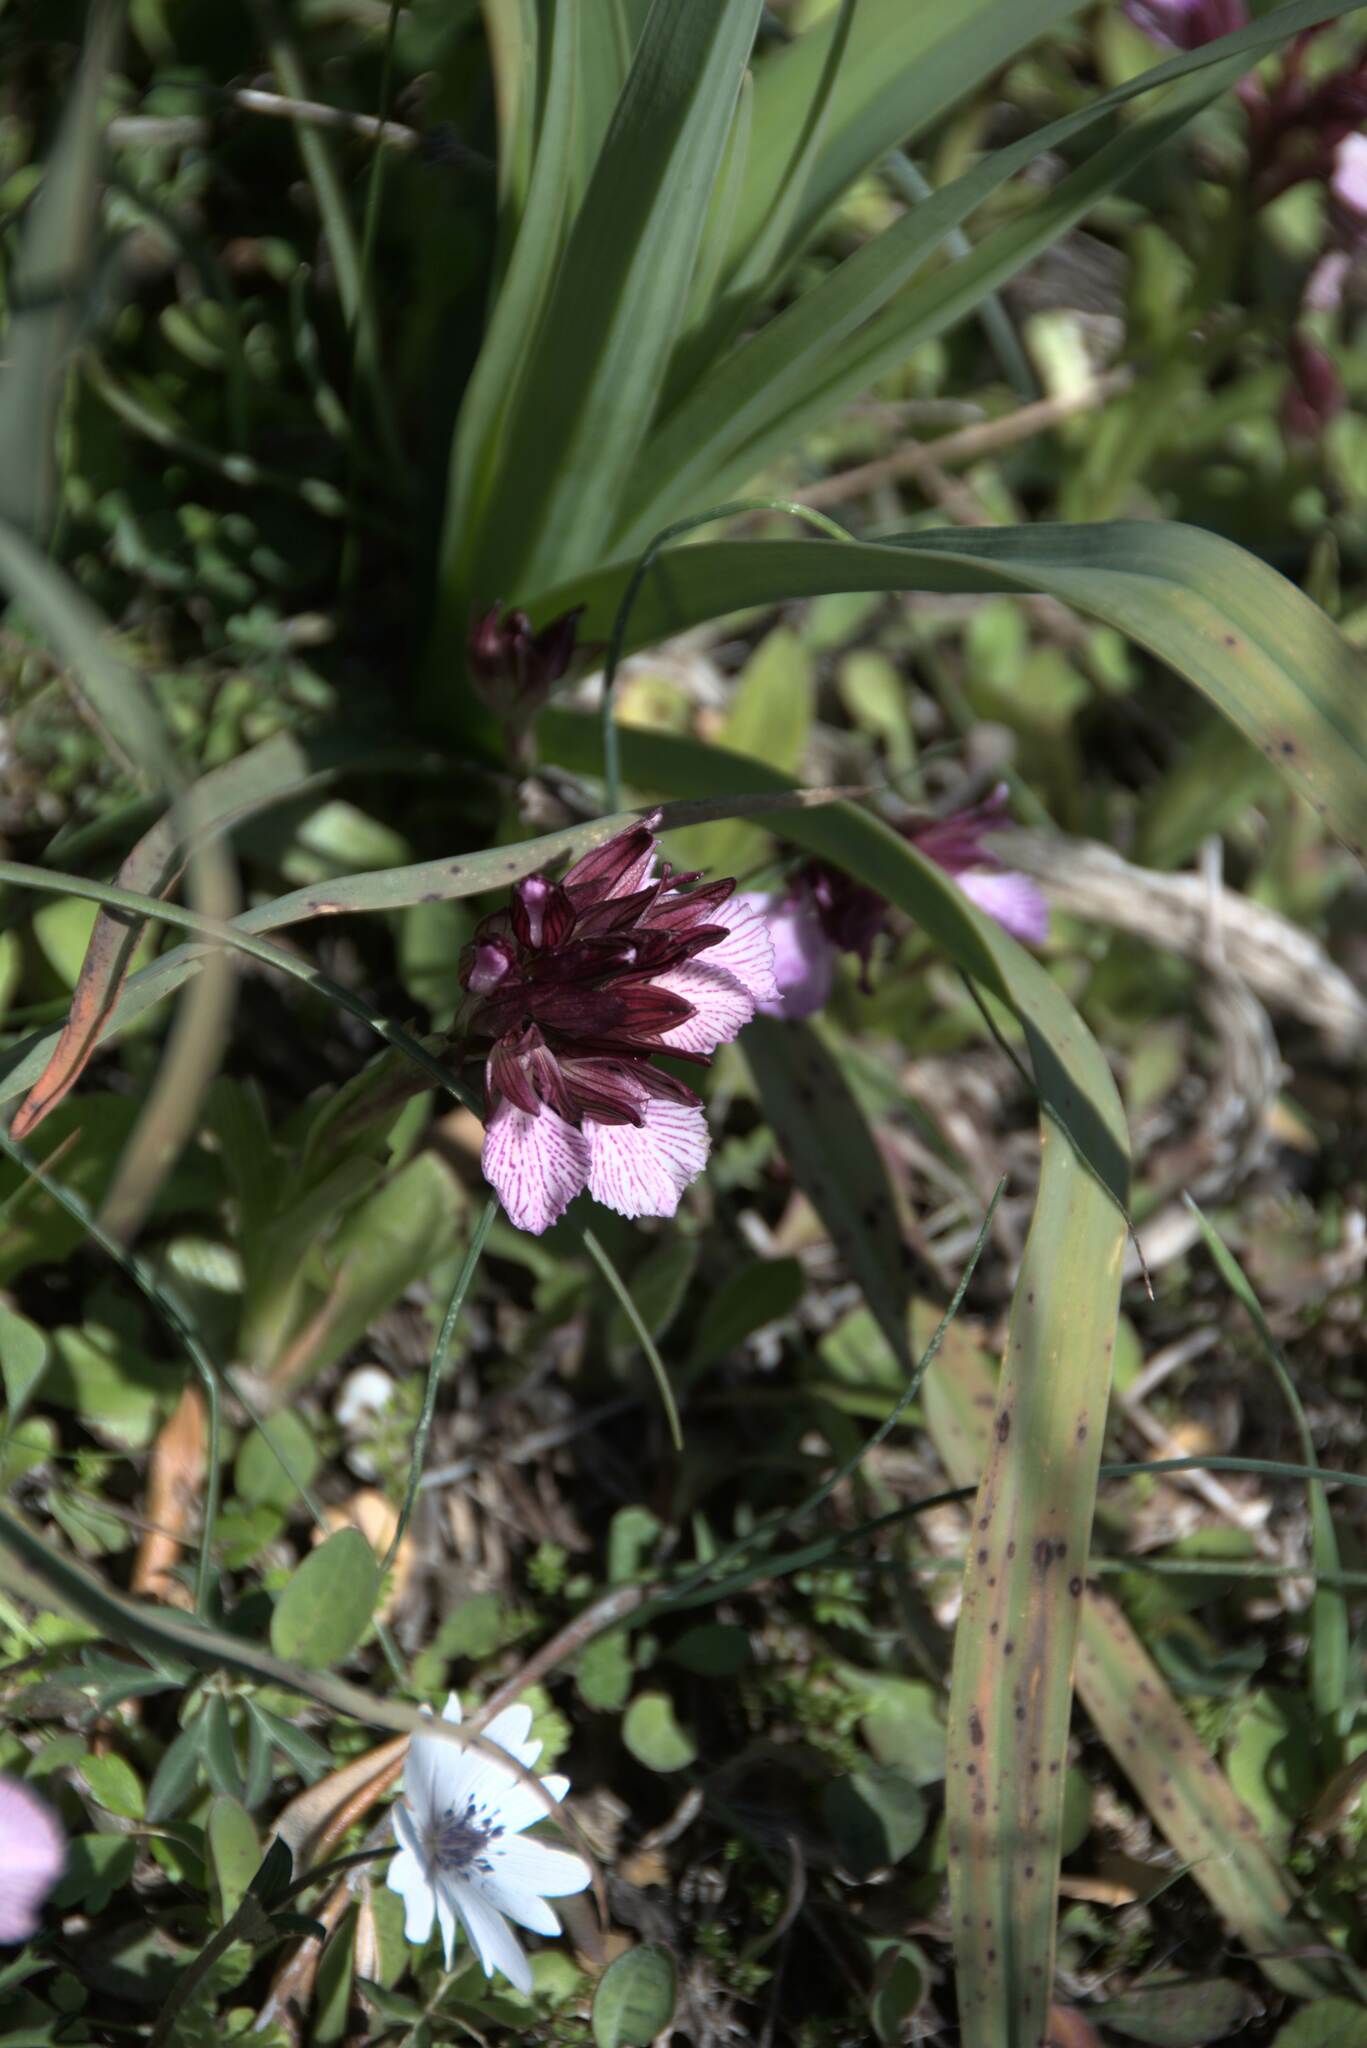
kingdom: Plantae
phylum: Tracheophyta
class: Liliopsida
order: Asparagales
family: Orchidaceae
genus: Anacamptis
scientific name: Anacamptis papilionacea
